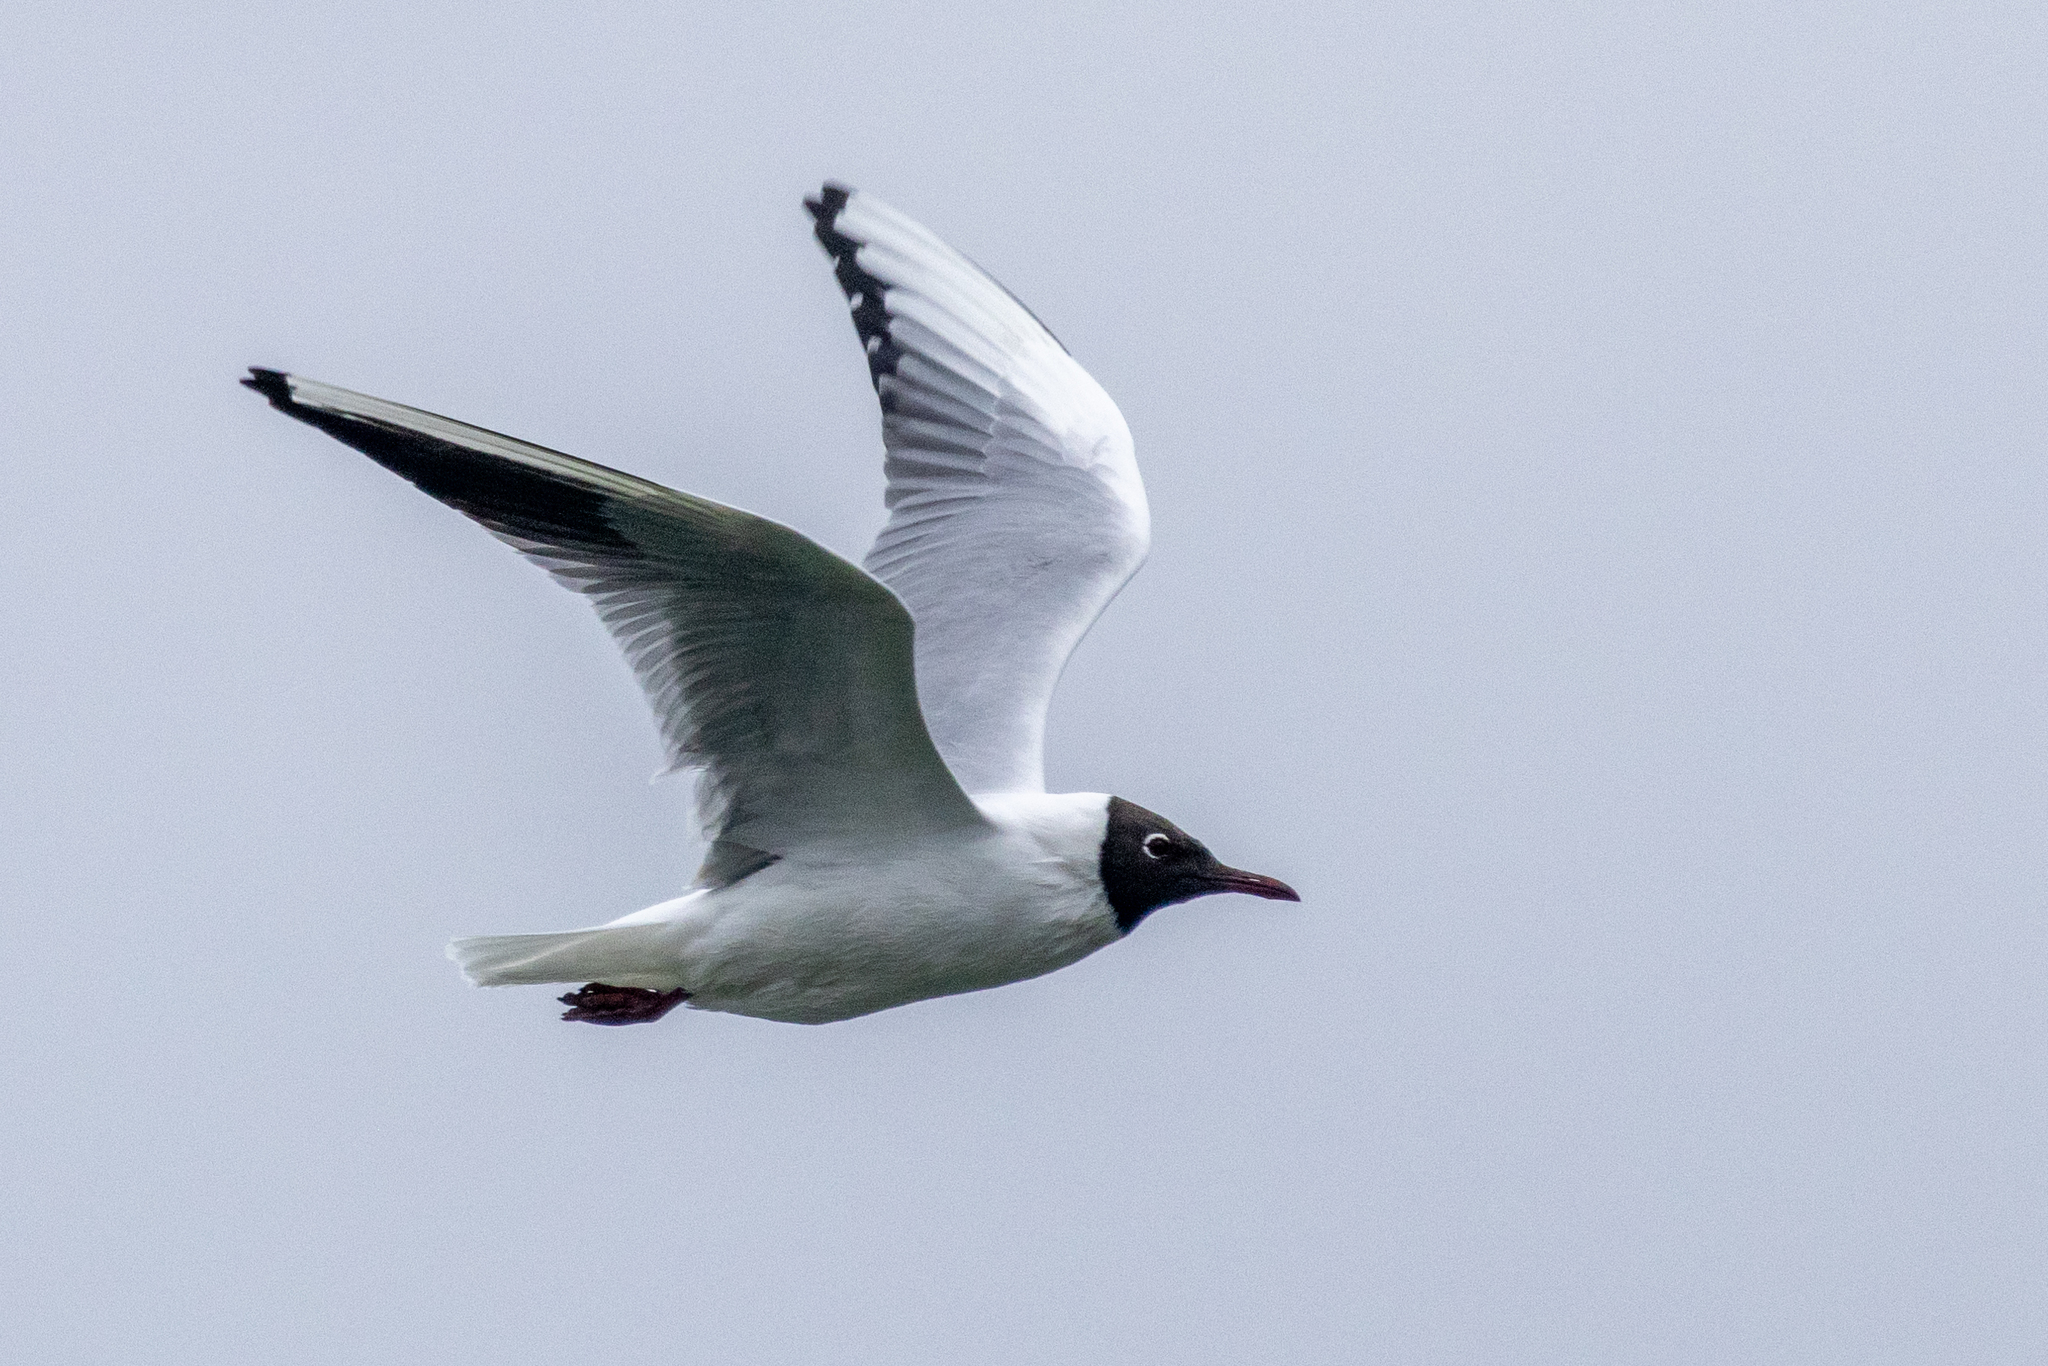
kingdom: Animalia
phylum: Chordata
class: Aves
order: Charadriiformes
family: Laridae
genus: Chroicocephalus
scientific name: Chroicocephalus ridibundus
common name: Black-headed gull
